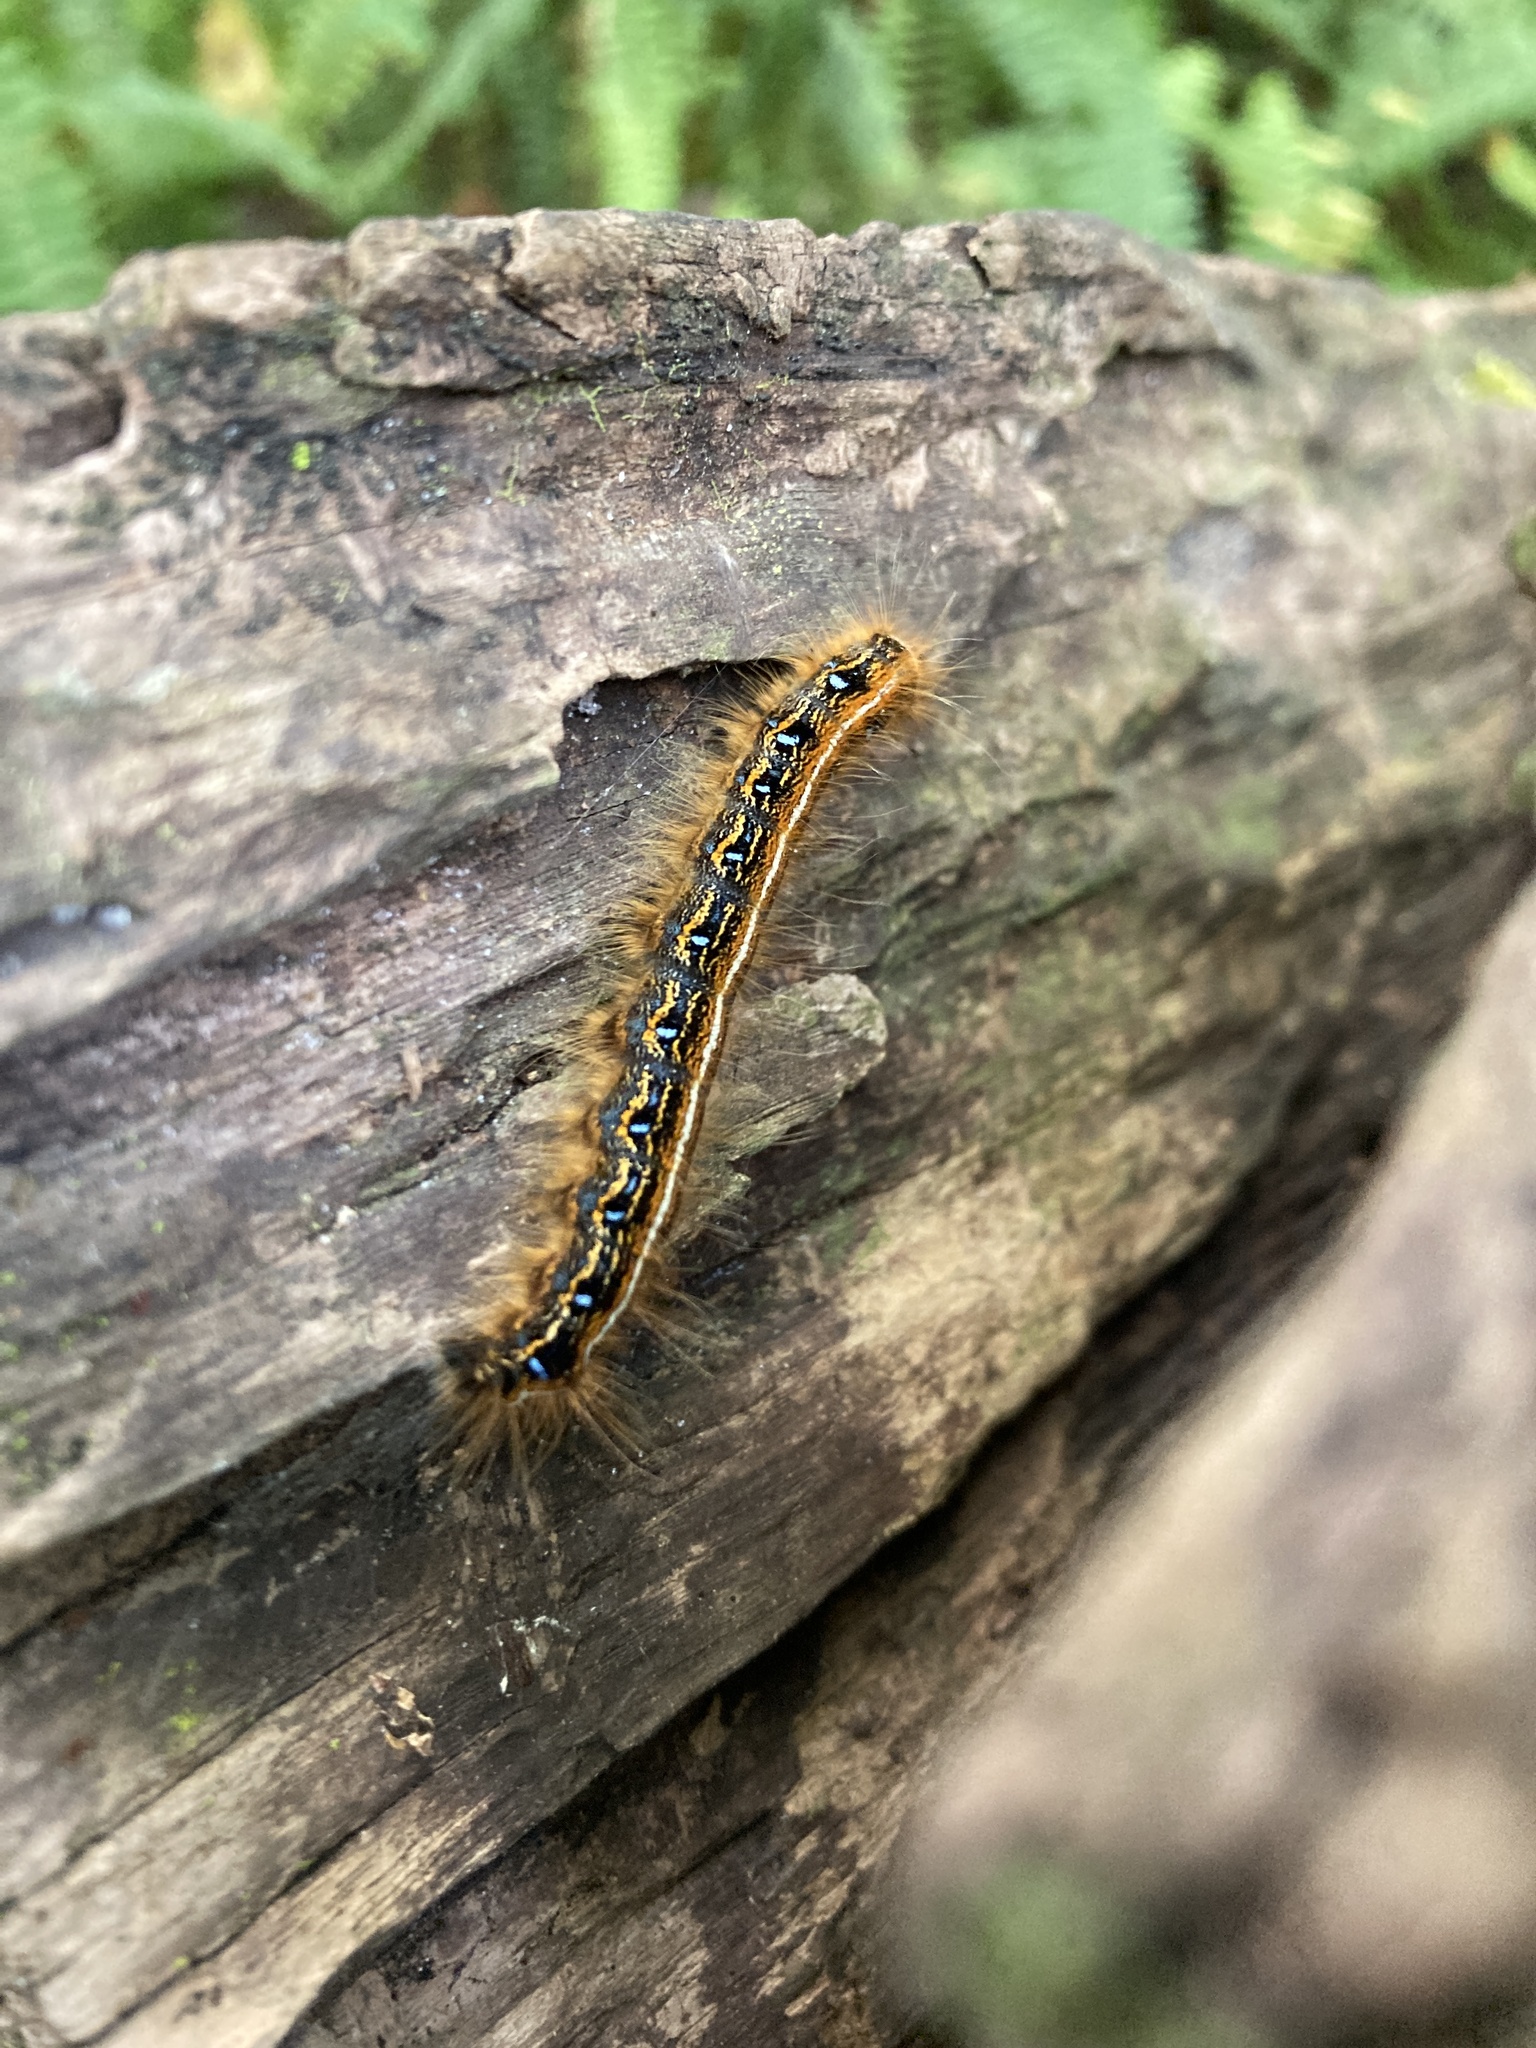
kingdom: Animalia
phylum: Arthropoda
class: Insecta
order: Lepidoptera
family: Lasiocampidae
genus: Malacosoma
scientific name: Malacosoma americana
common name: Eastern tent caterpillar moth
